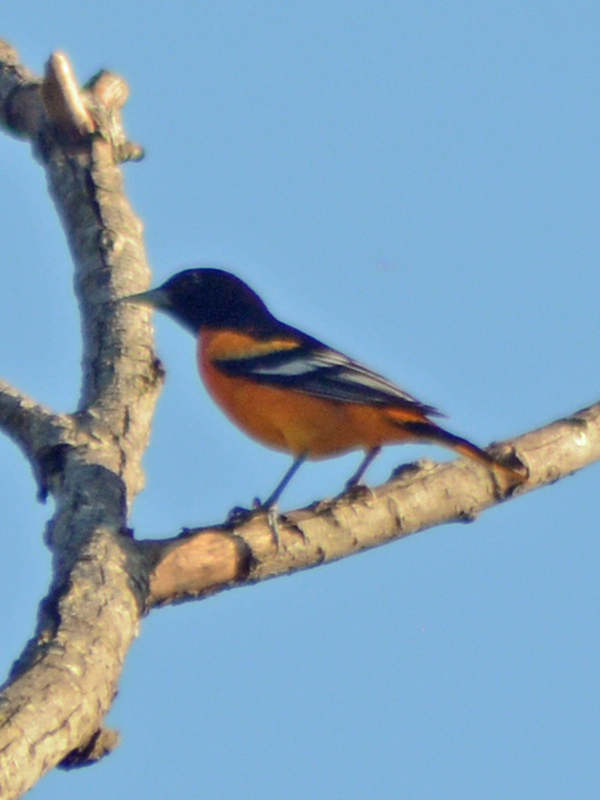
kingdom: Animalia
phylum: Chordata
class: Aves
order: Passeriformes
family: Icteridae
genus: Icterus
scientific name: Icterus galbula
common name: Baltimore oriole
